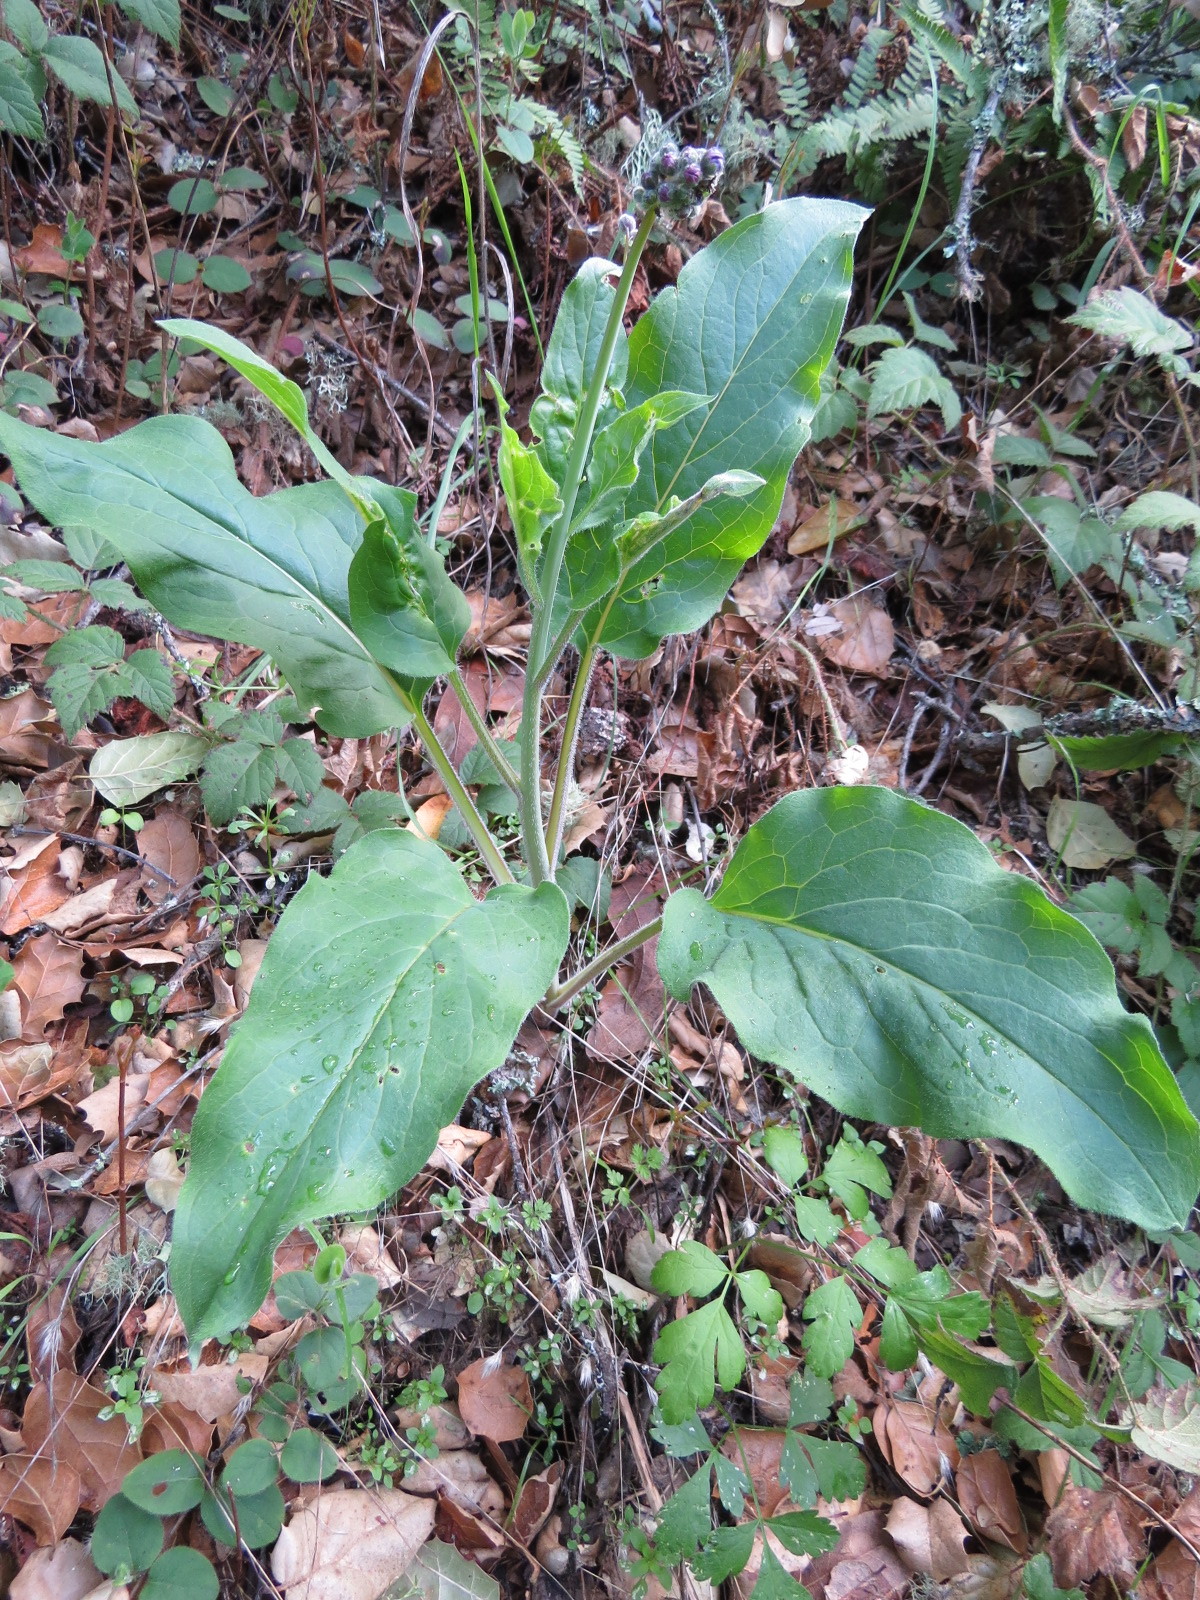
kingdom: Plantae
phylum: Tracheophyta
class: Magnoliopsida
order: Boraginales
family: Boraginaceae
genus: Adelinia
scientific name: Adelinia grande
